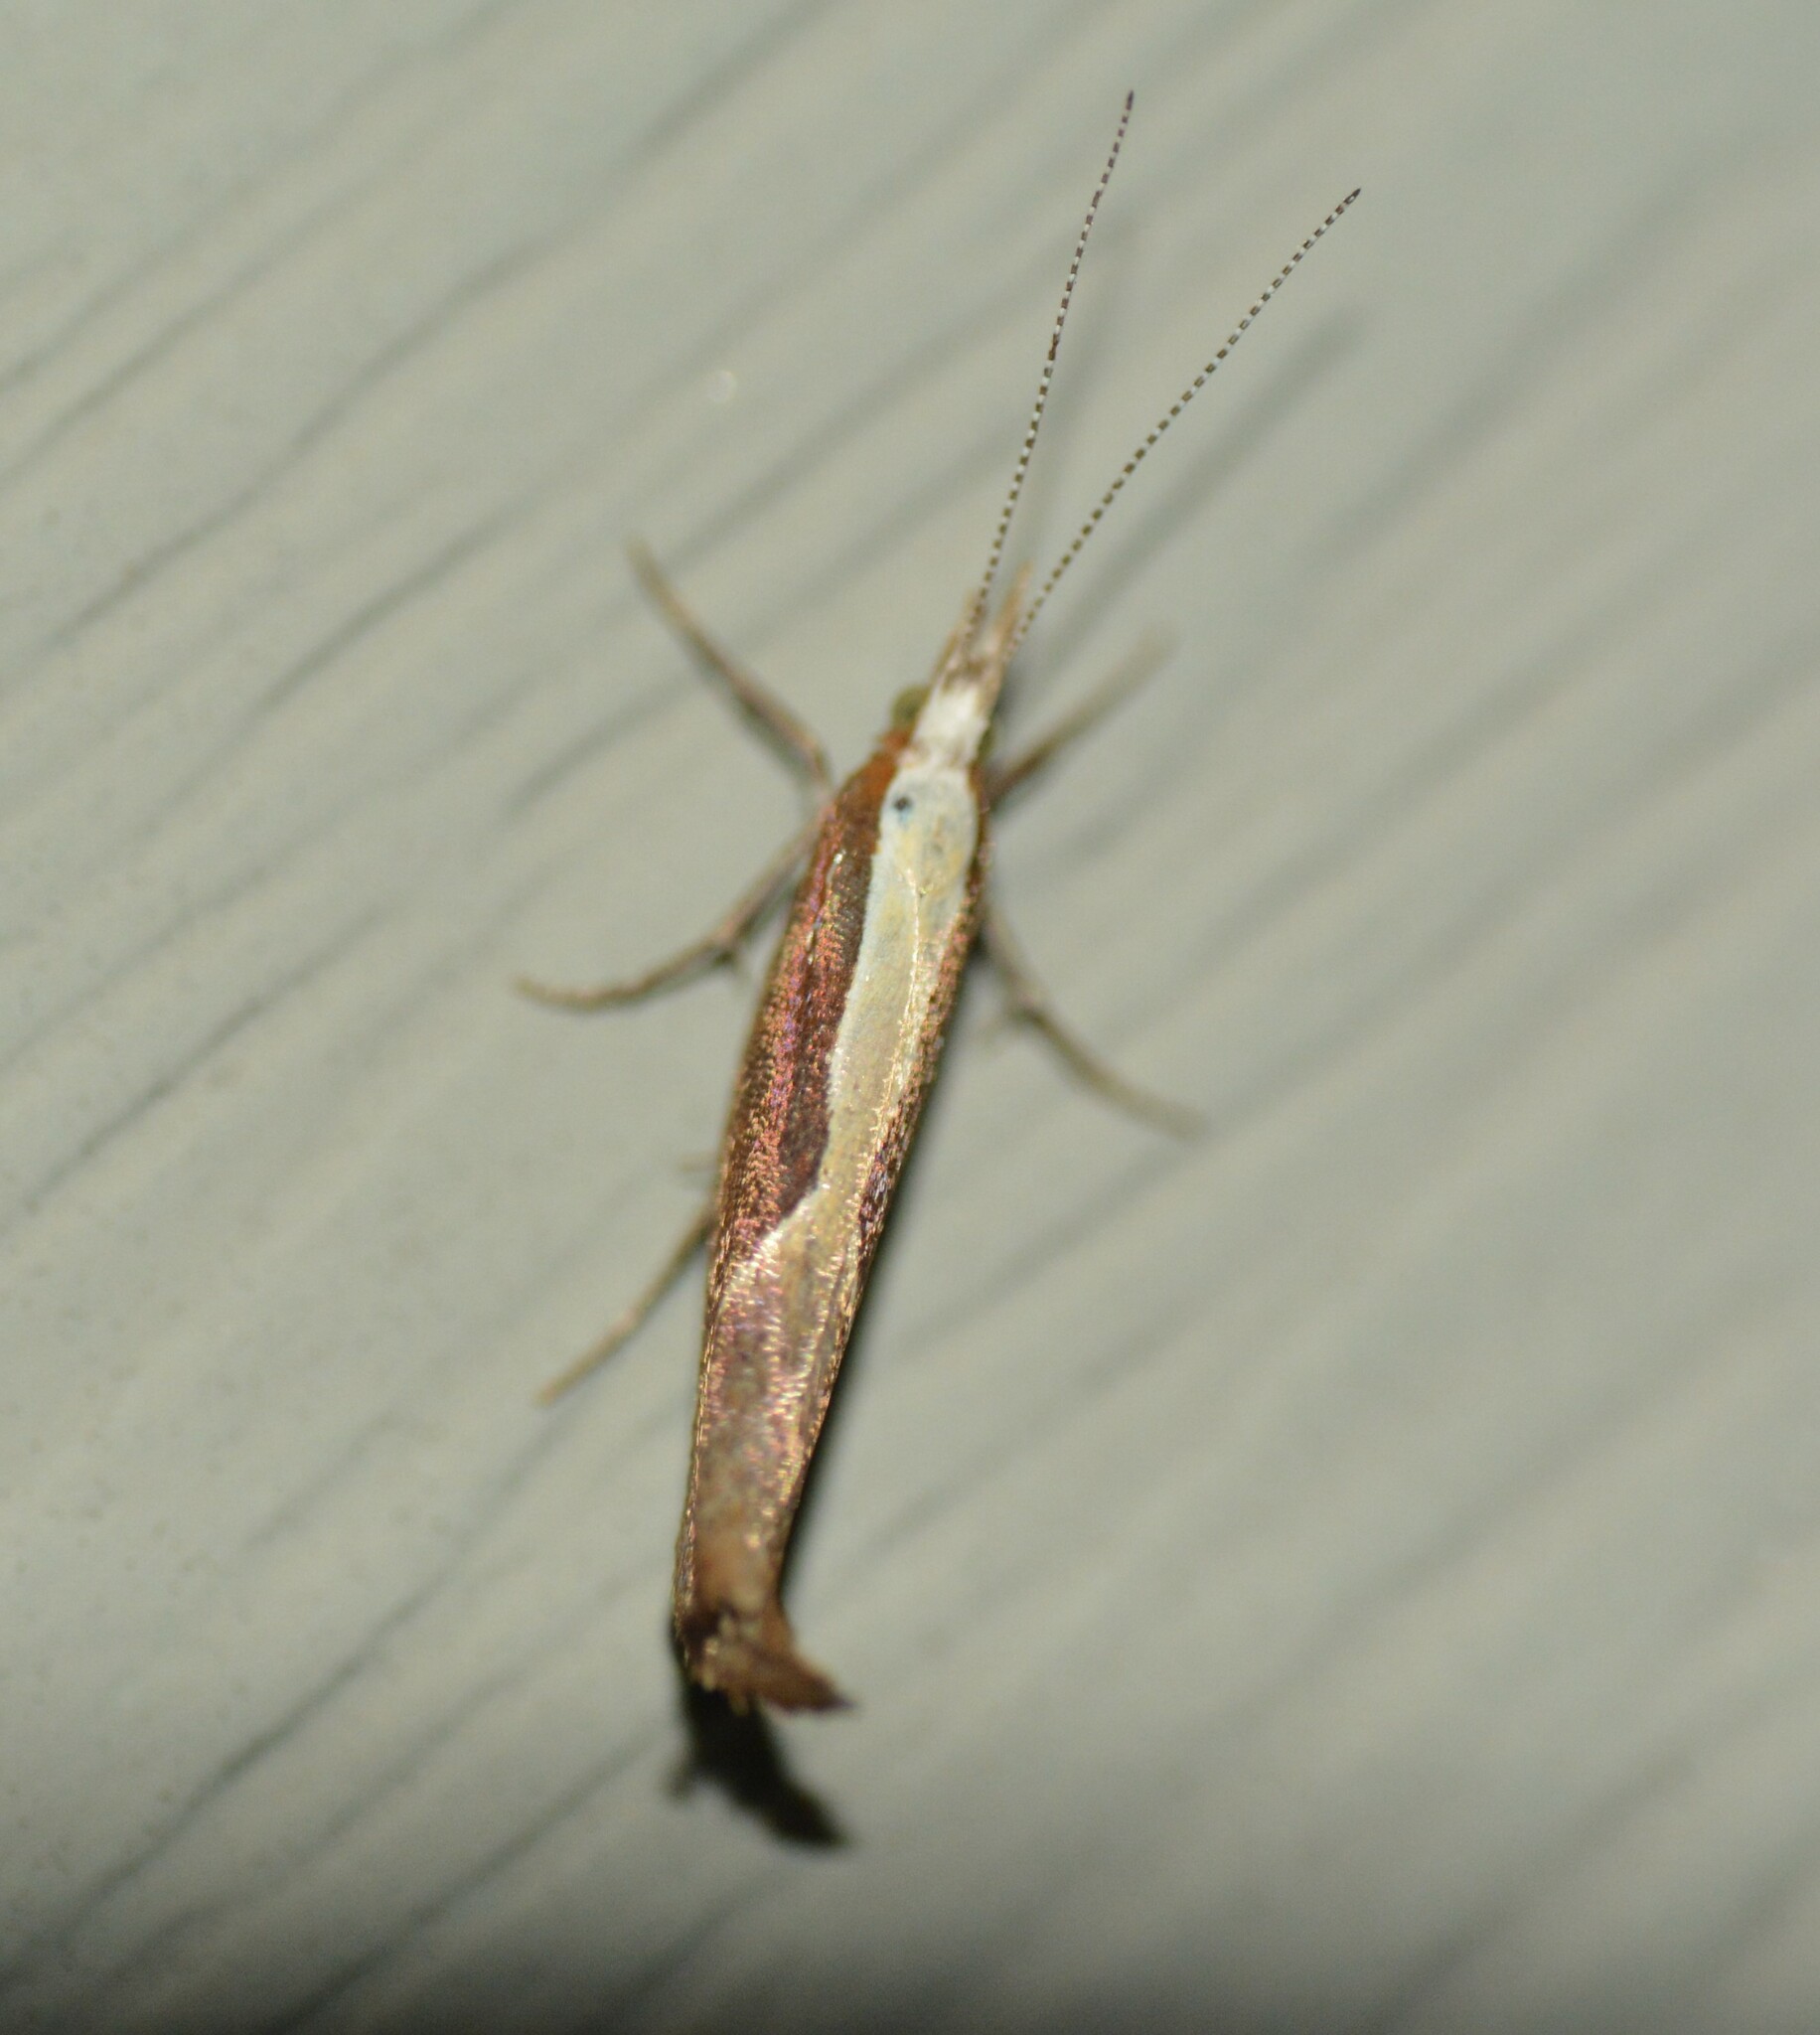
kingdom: Animalia
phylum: Arthropoda
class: Insecta
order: Lepidoptera
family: Ypsolophidae
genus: Ypsolopha
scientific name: Ypsolopha dentella
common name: Honeysuckle moth
